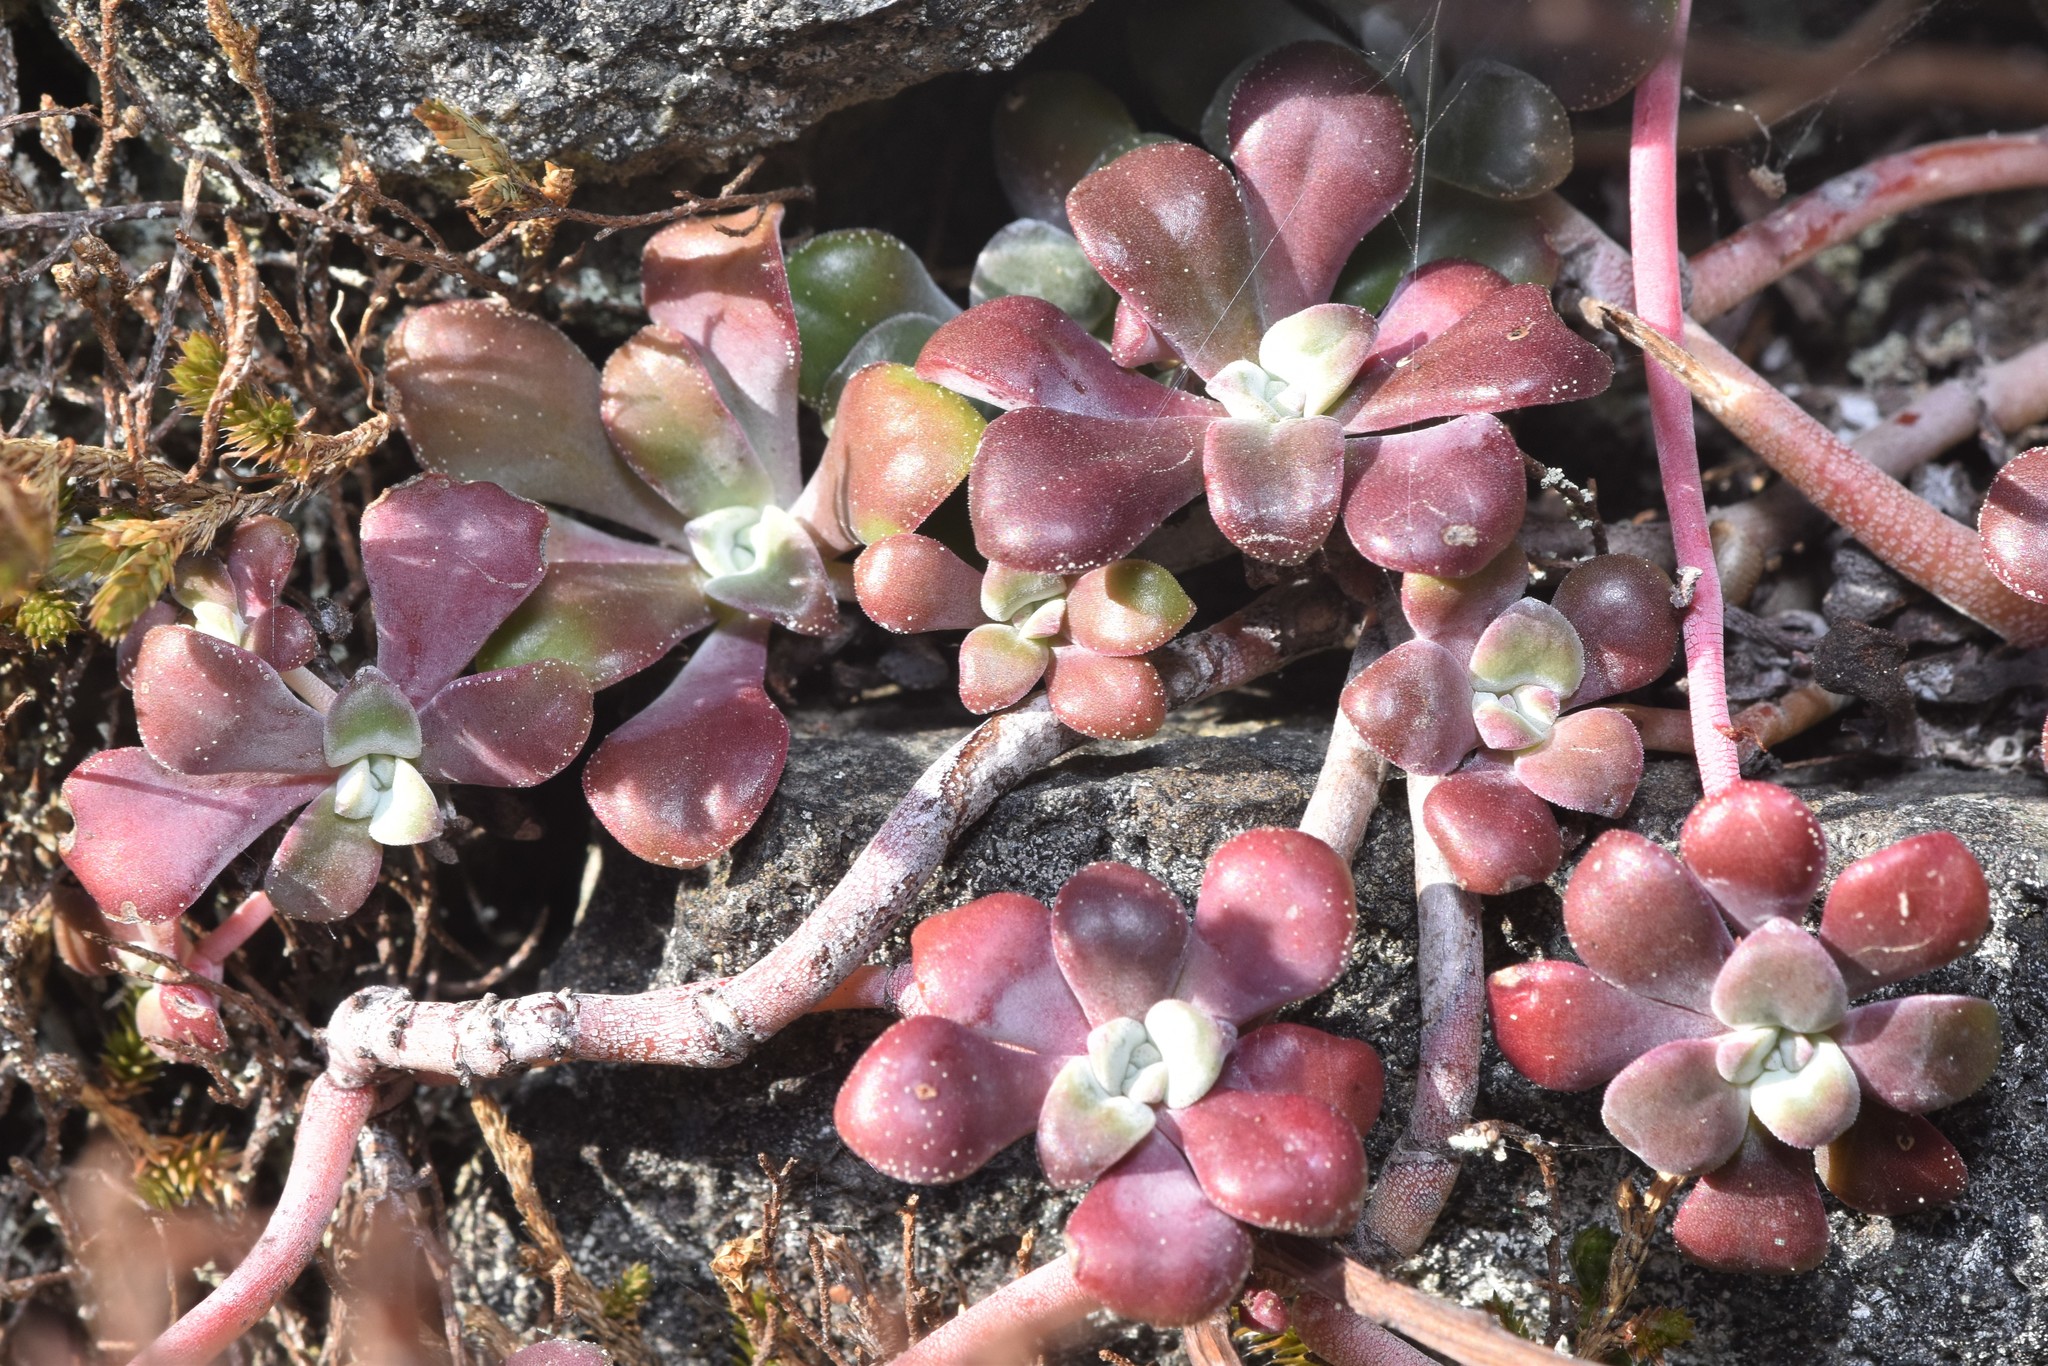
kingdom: Plantae
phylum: Tracheophyta
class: Magnoliopsida
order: Saxifragales
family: Crassulaceae
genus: Sedum
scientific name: Sedum spathulifolium
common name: Colorado stonecrop
